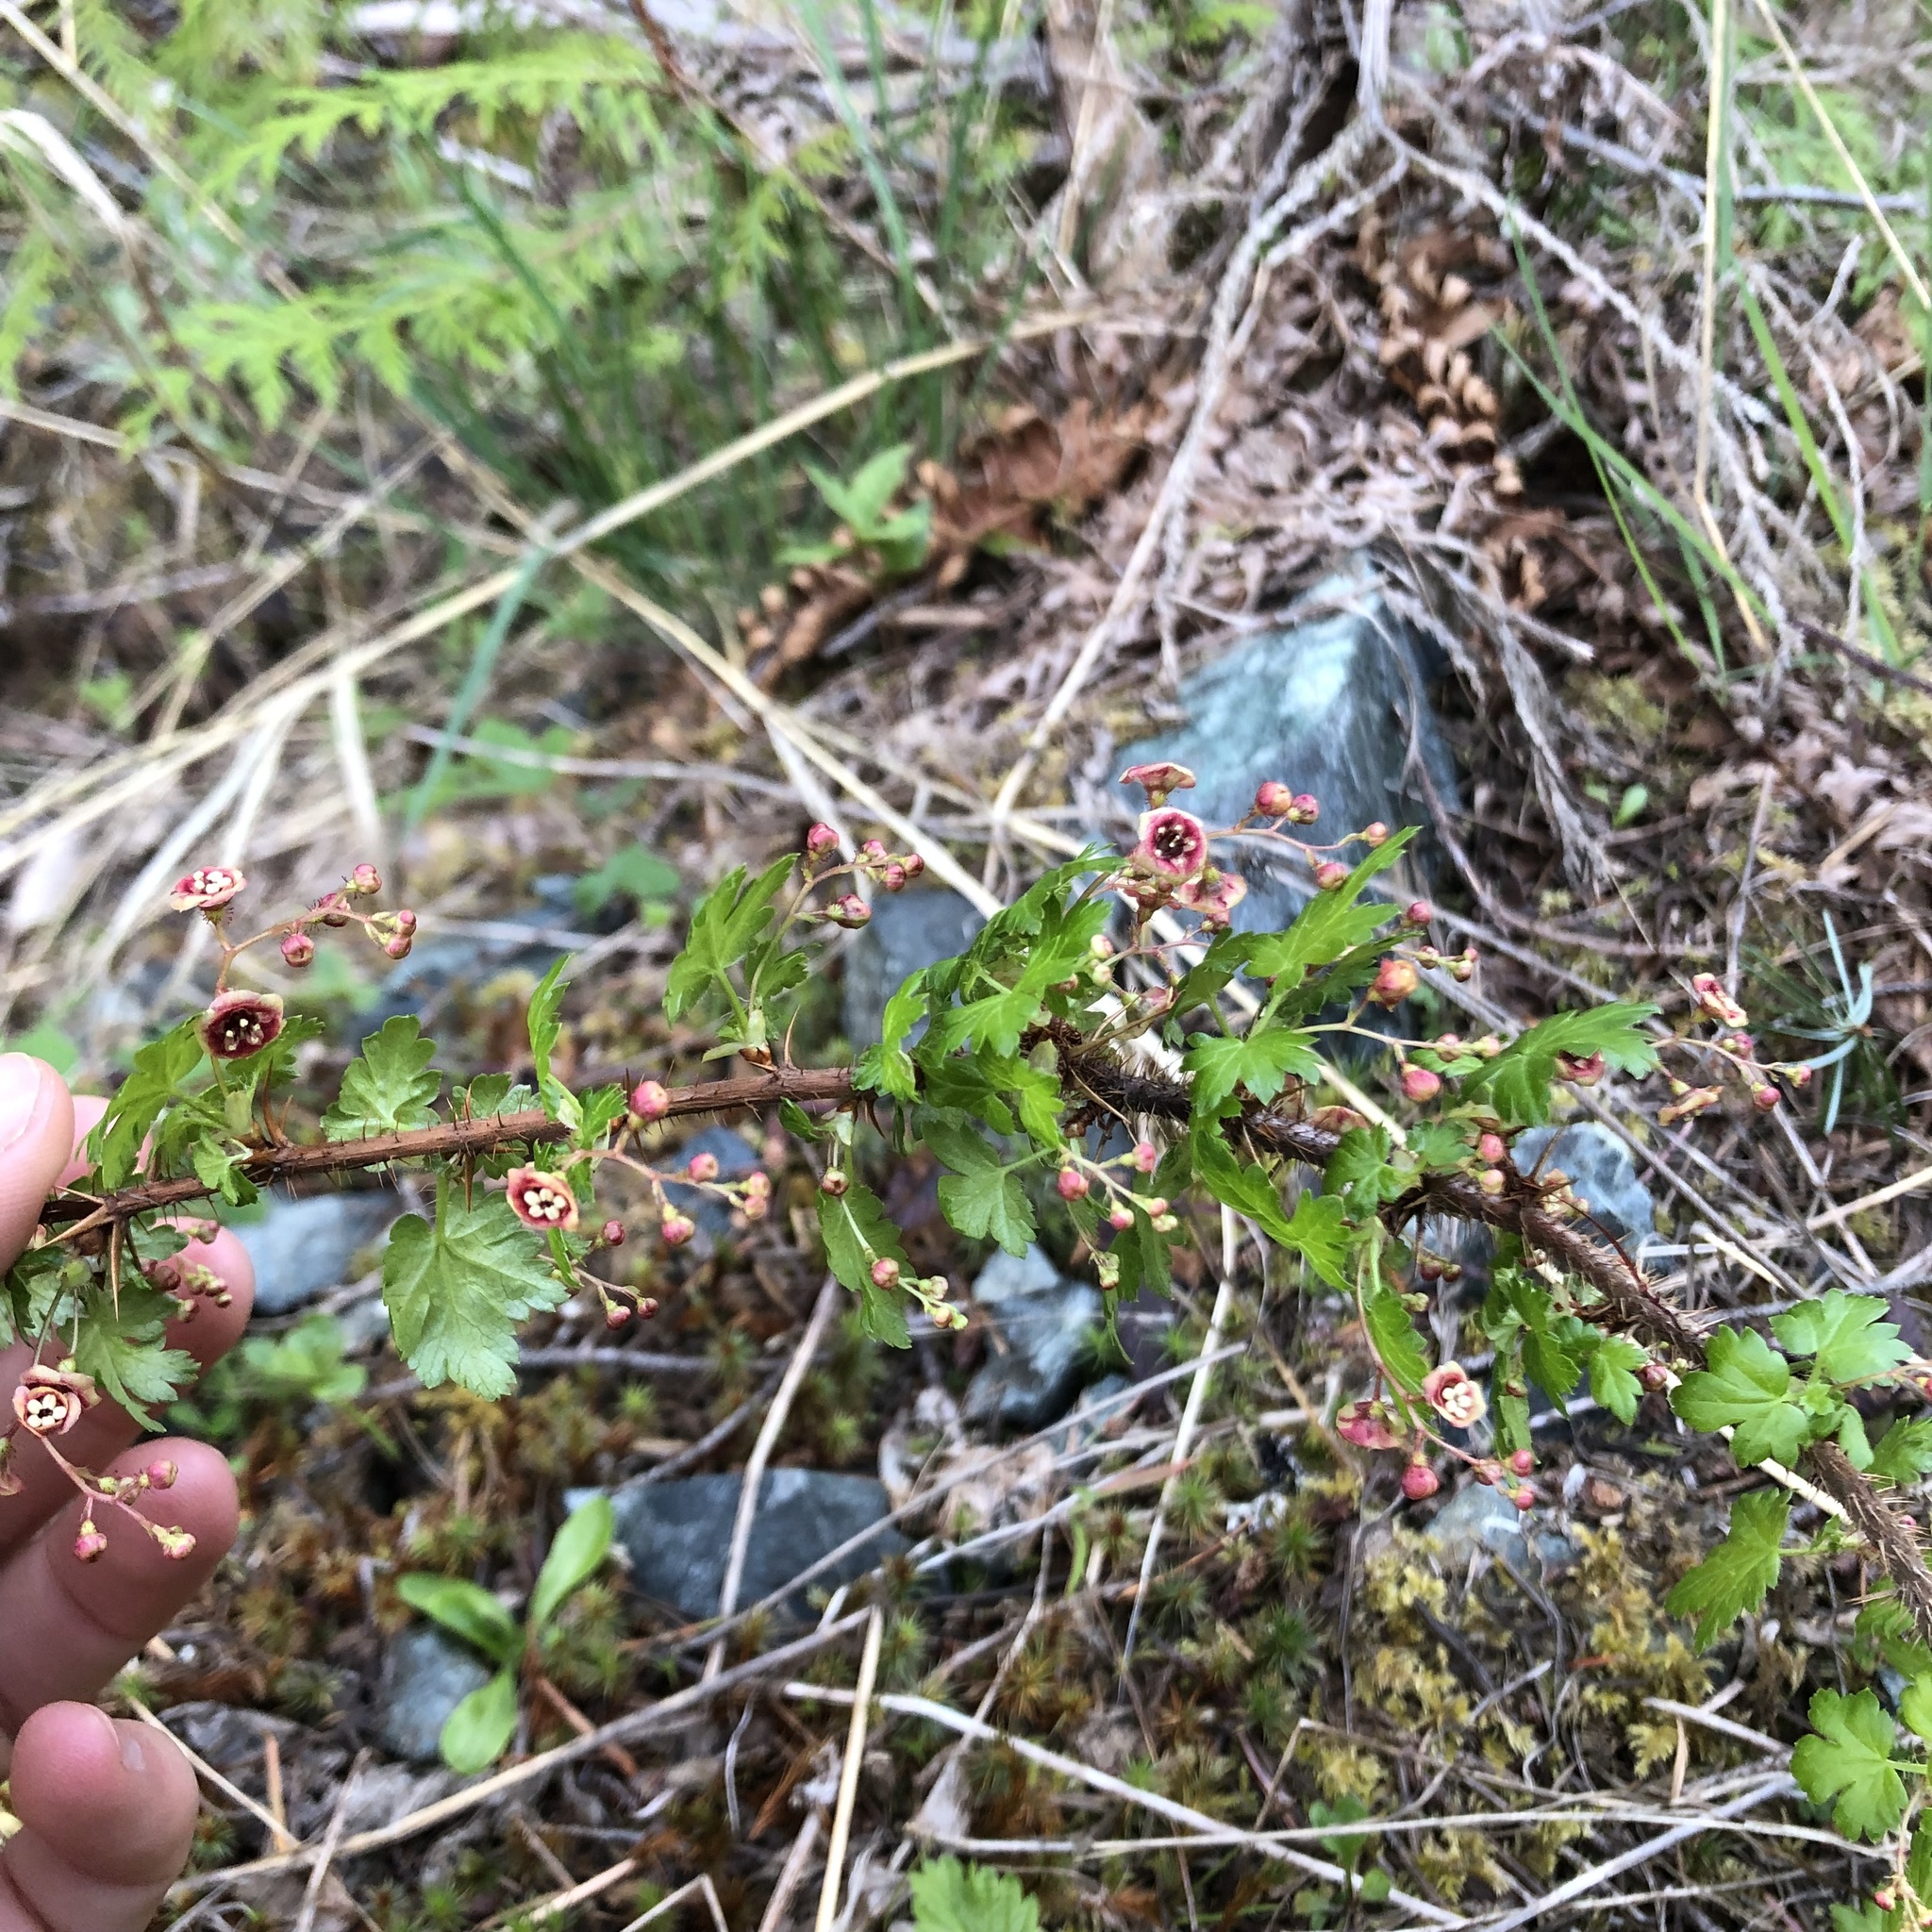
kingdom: Plantae
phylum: Tracheophyta
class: Magnoliopsida
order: Saxifragales
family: Grossulariaceae
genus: Ribes
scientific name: Ribes lacustre
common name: Black gooseberry
